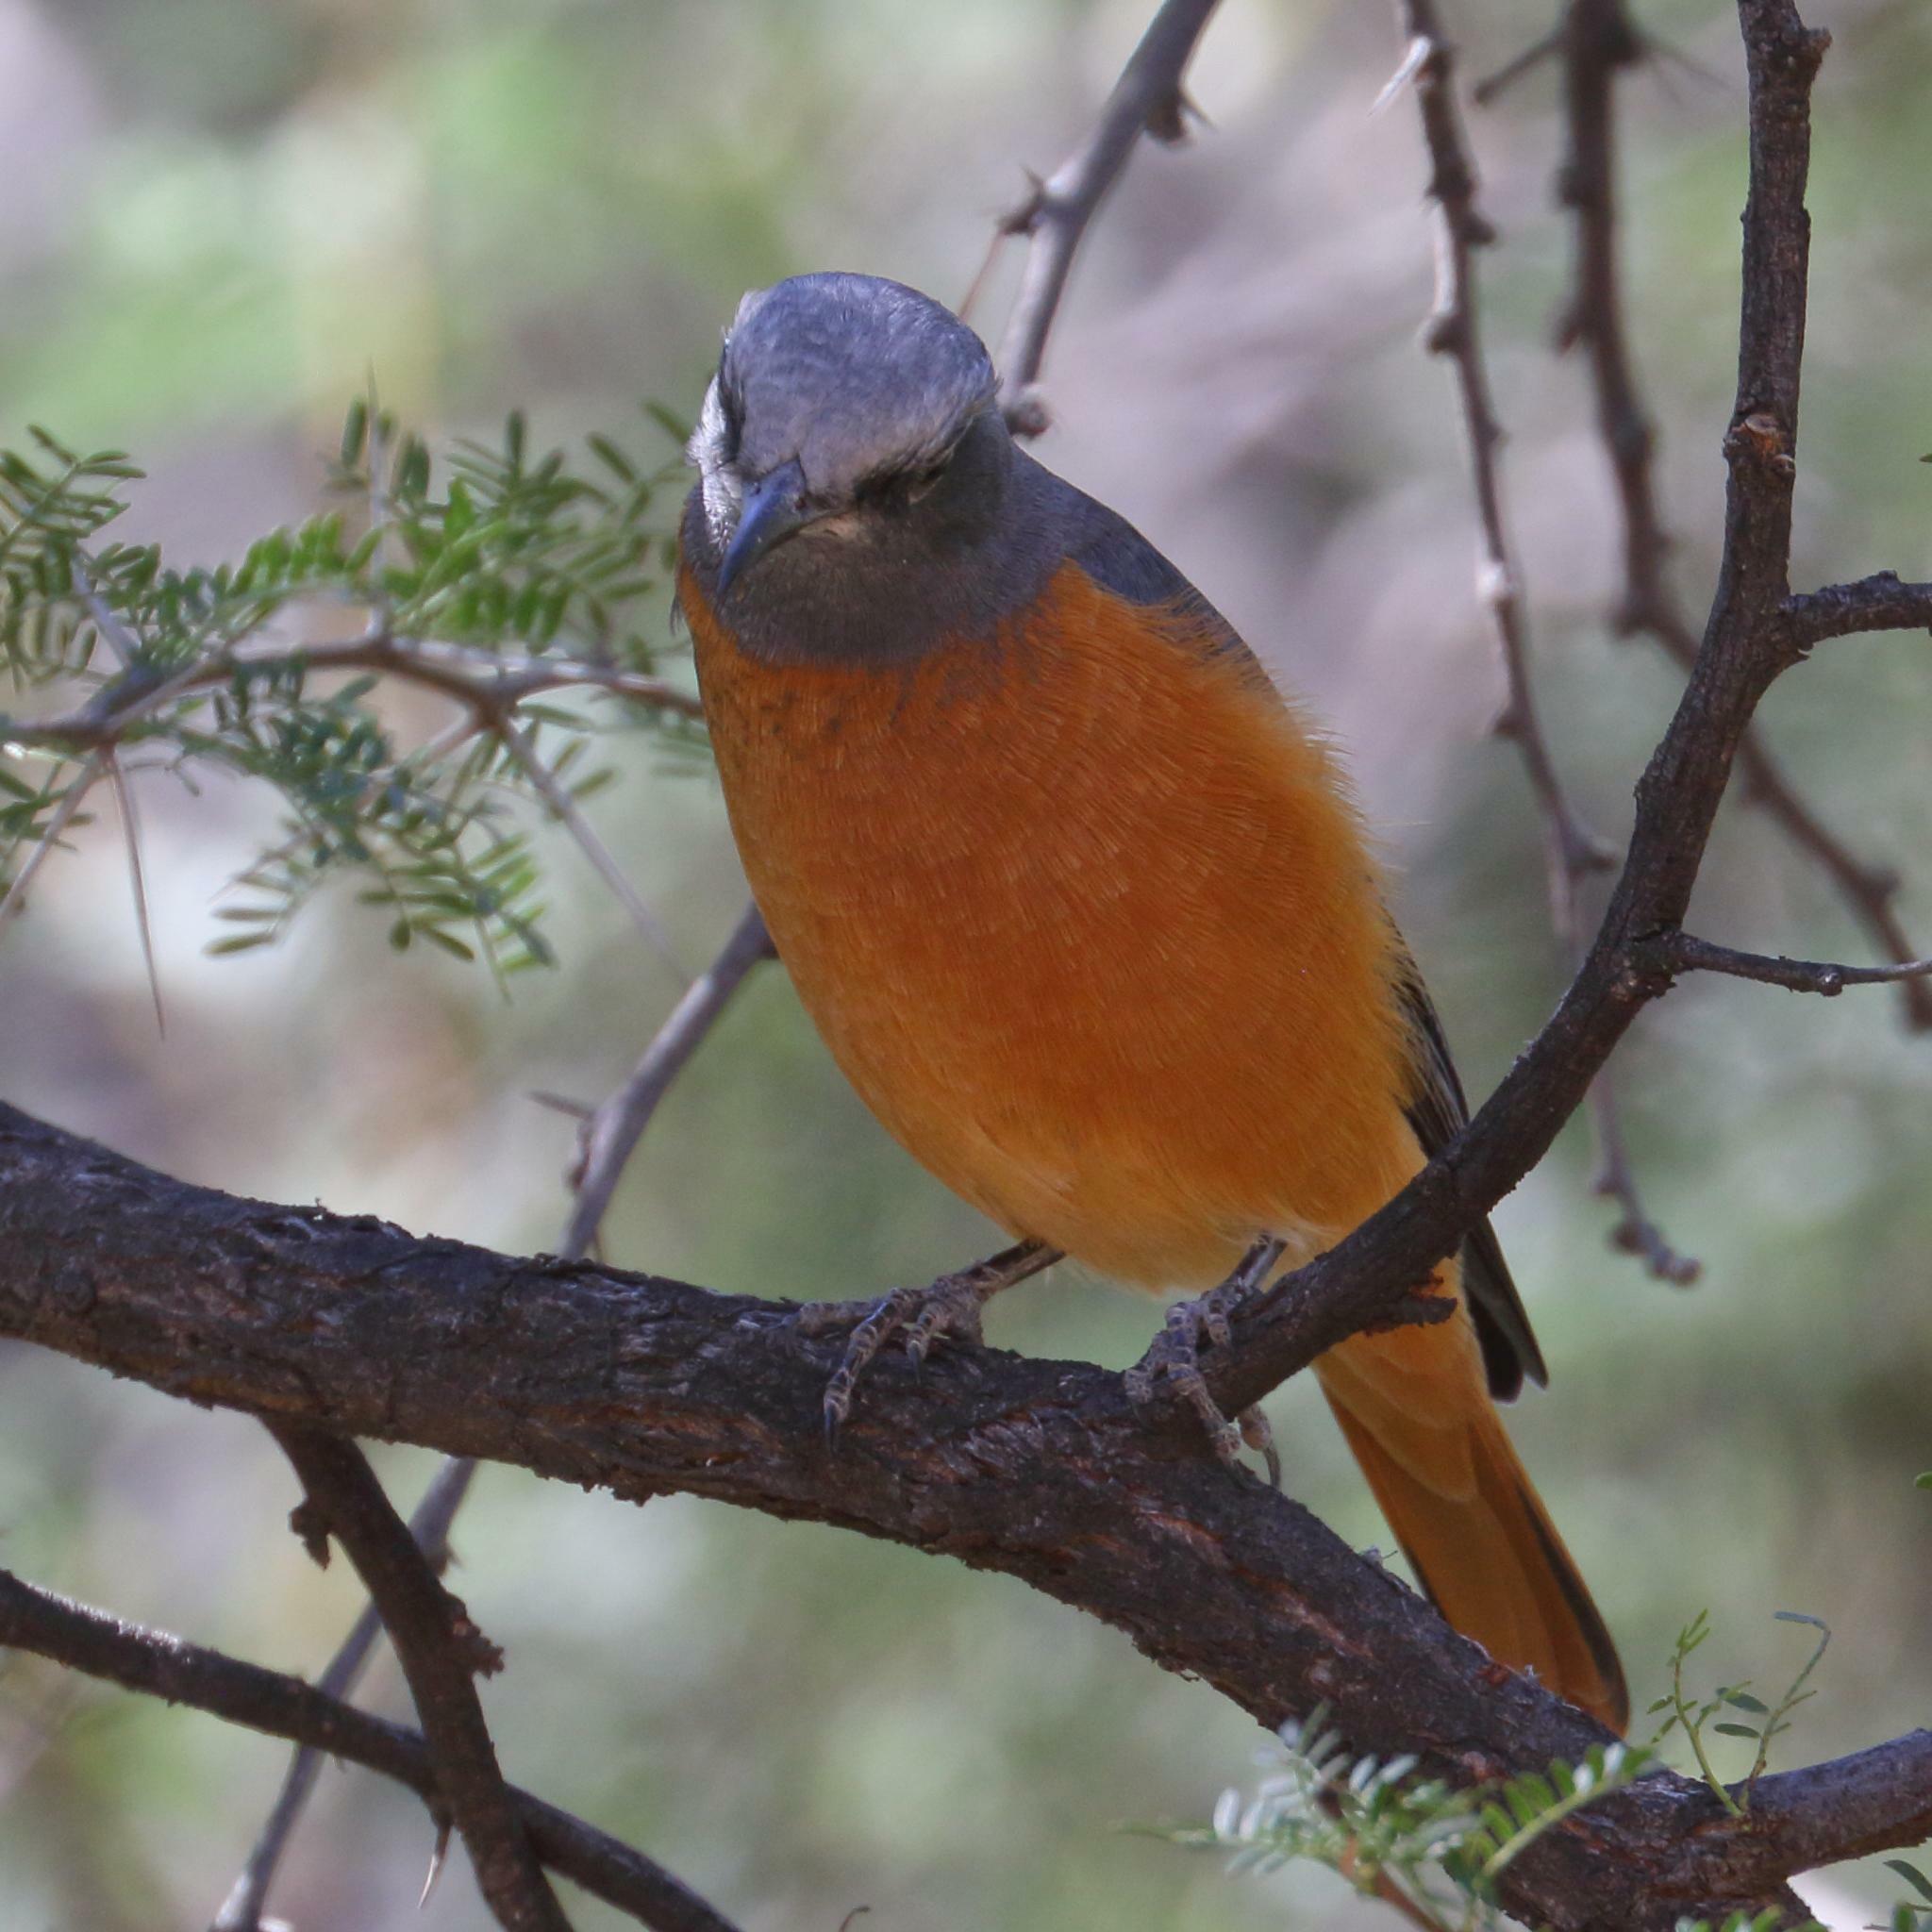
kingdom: Animalia
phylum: Chordata
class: Aves
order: Passeriformes
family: Muscicapidae
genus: Monticola
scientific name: Monticola brevipes
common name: Short-toed rock thrush
